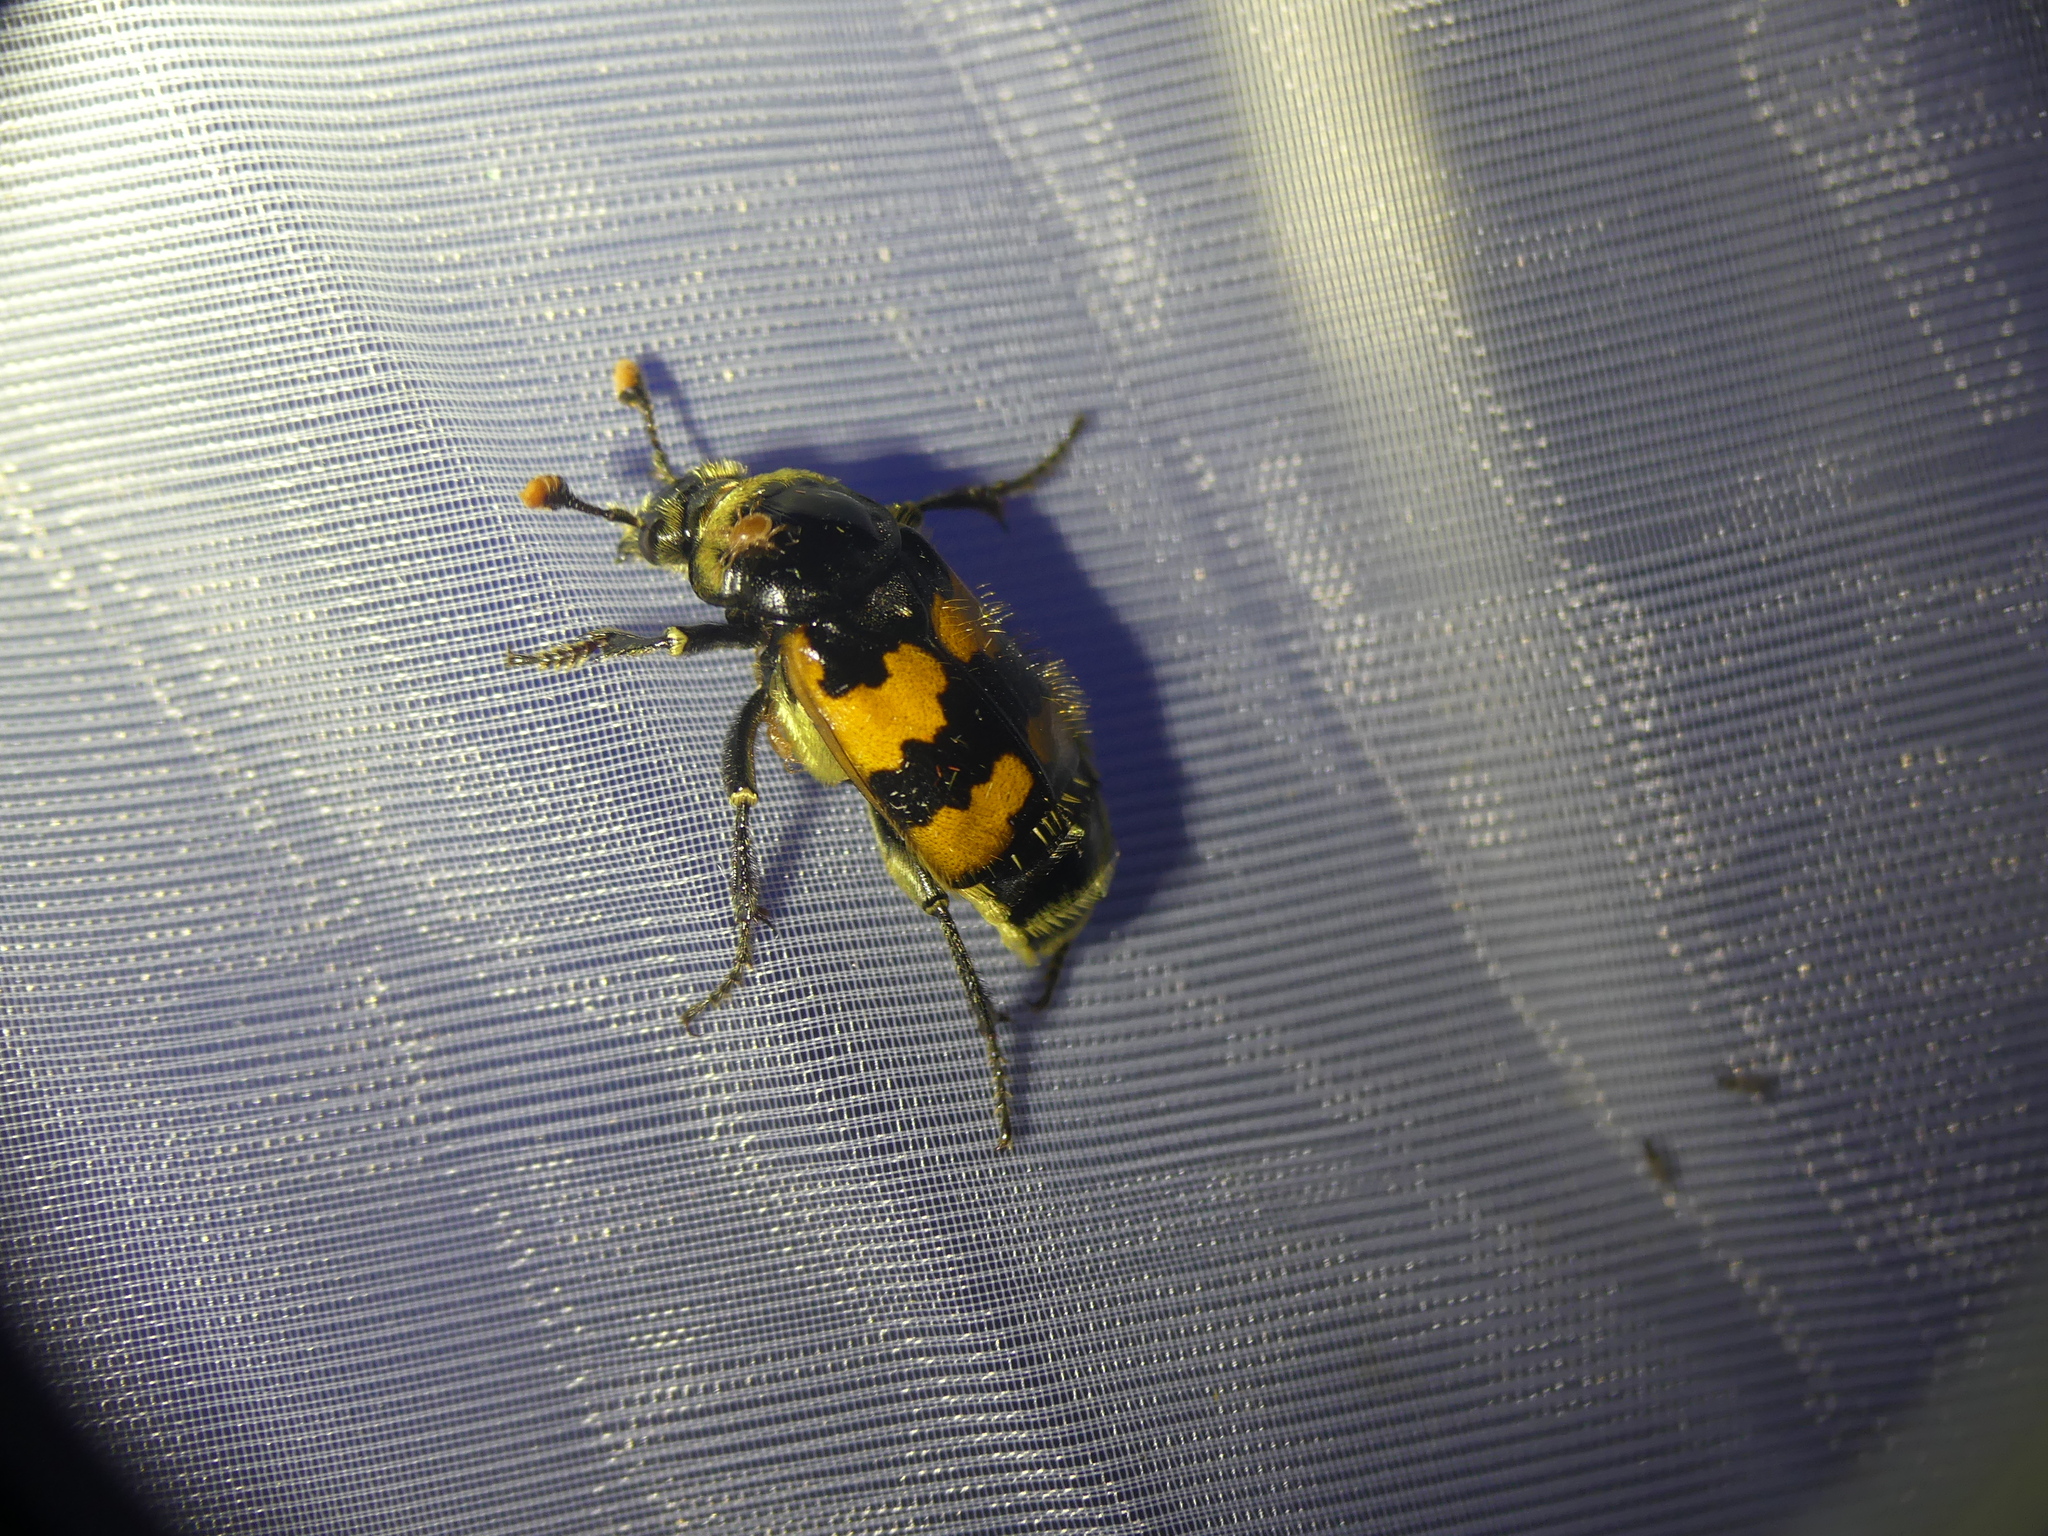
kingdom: Animalia
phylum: Arthropoda
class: Insecta
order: Coleoptera
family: Staphylinidae
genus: Nicrophorus
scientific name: Nicrophorus vespillo
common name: Common burying beetle
